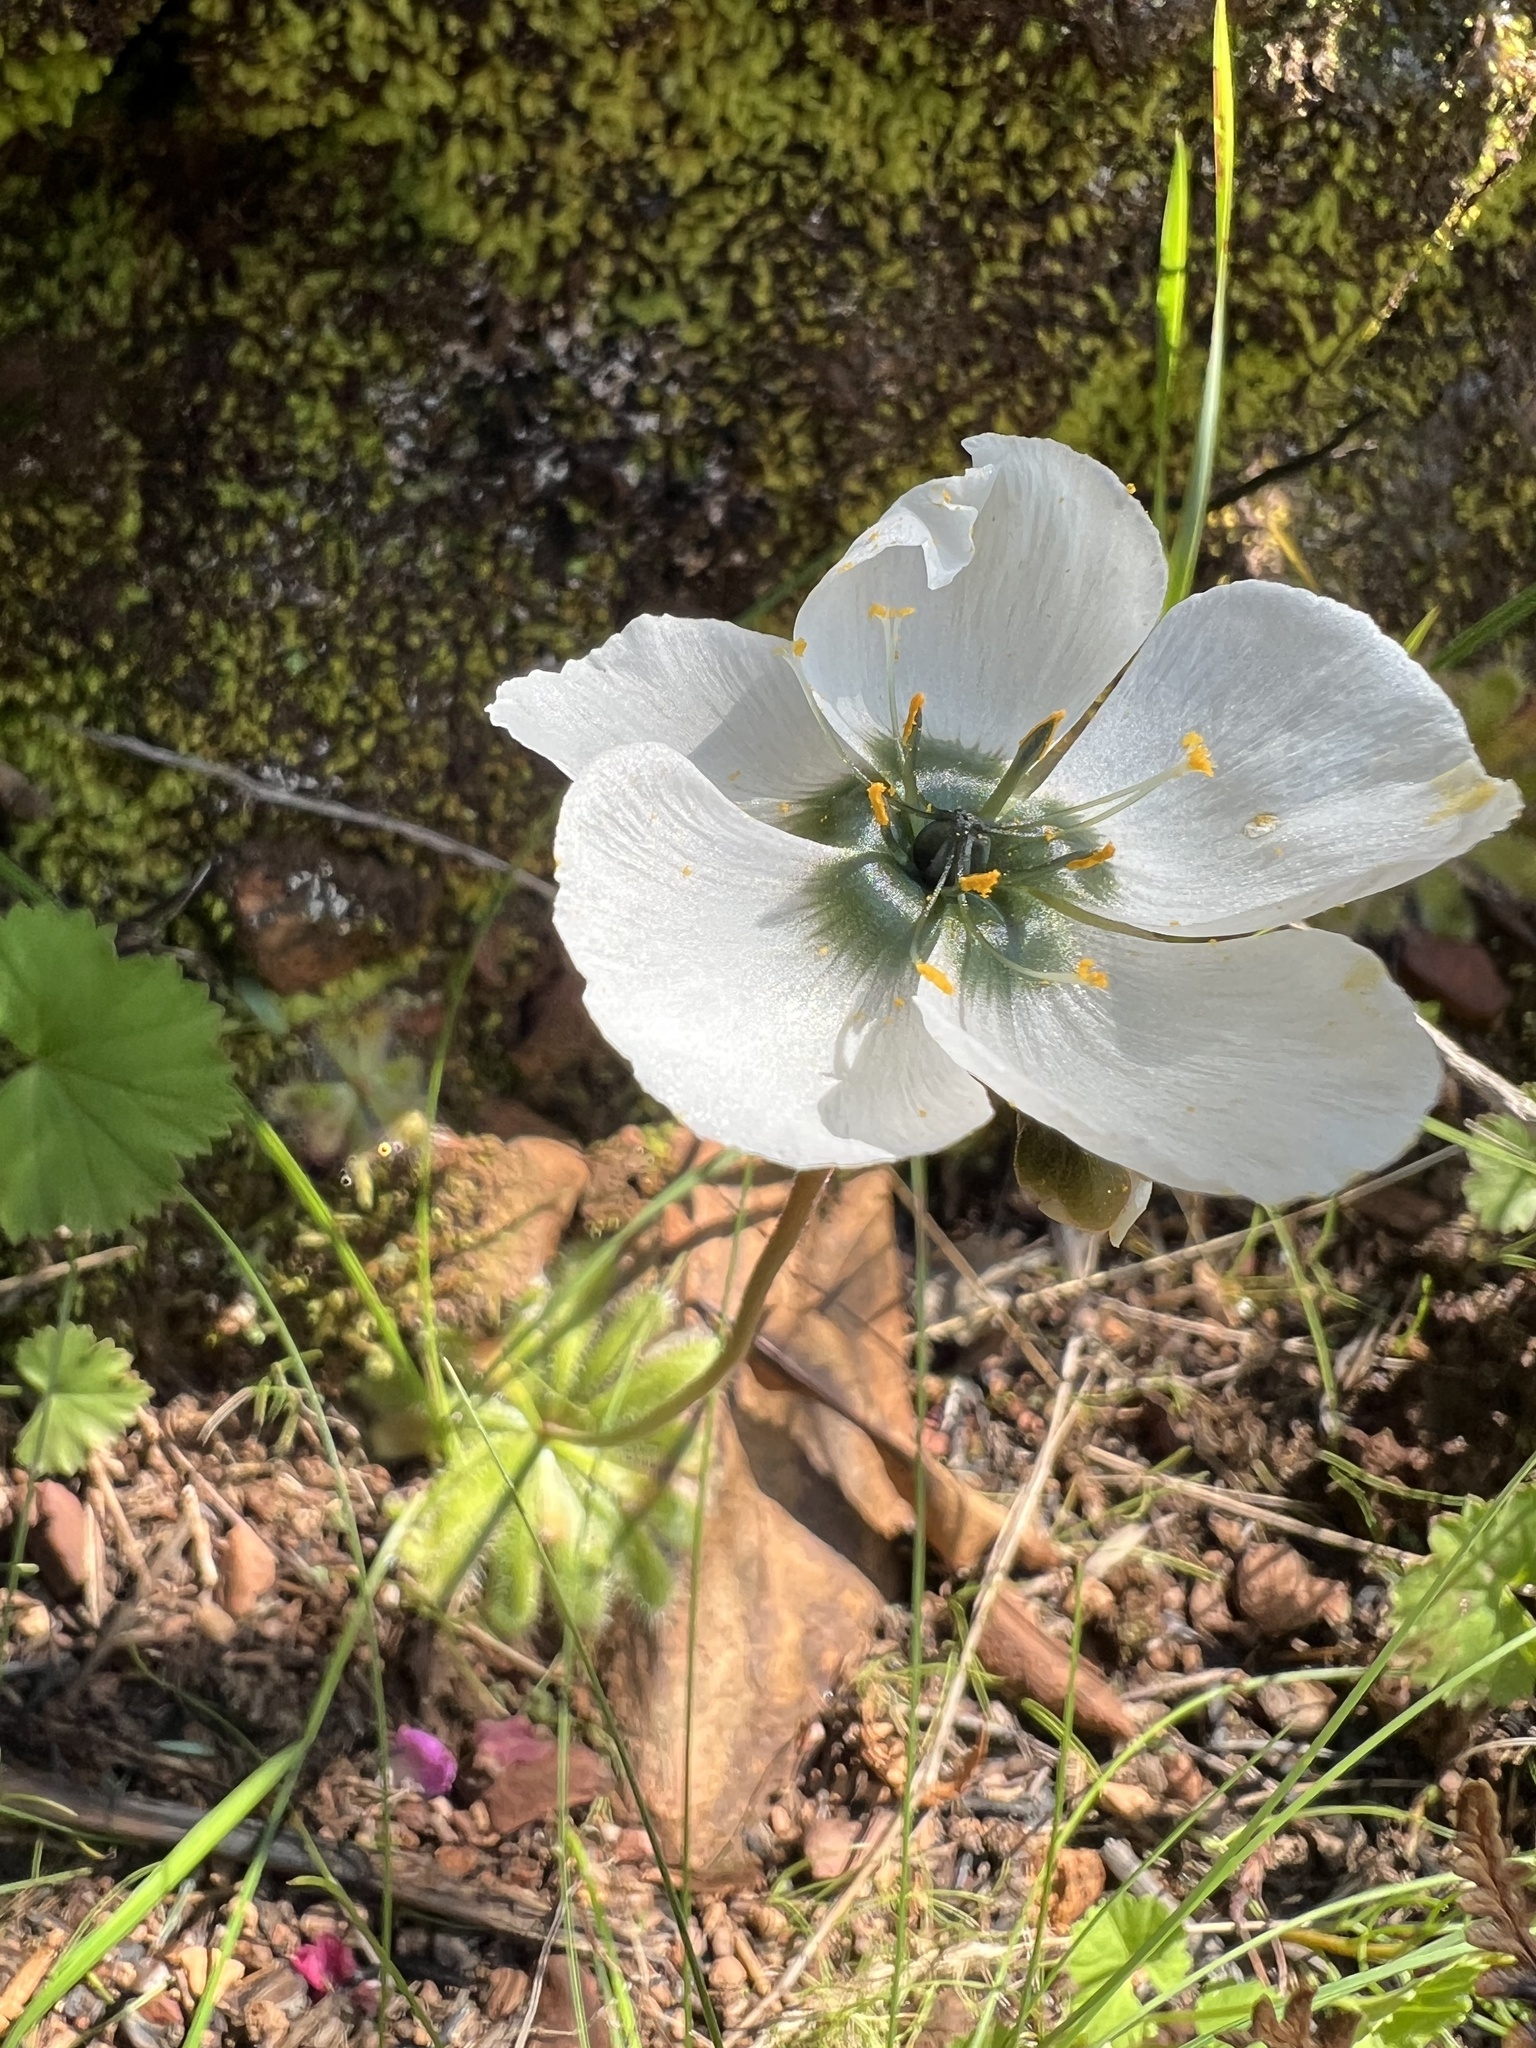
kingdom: Plantae
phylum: Tracheophyta
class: Magnoliopsida
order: Caryophyllales
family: Droseraceae
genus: Drosera
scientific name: Drosera pauciflora
